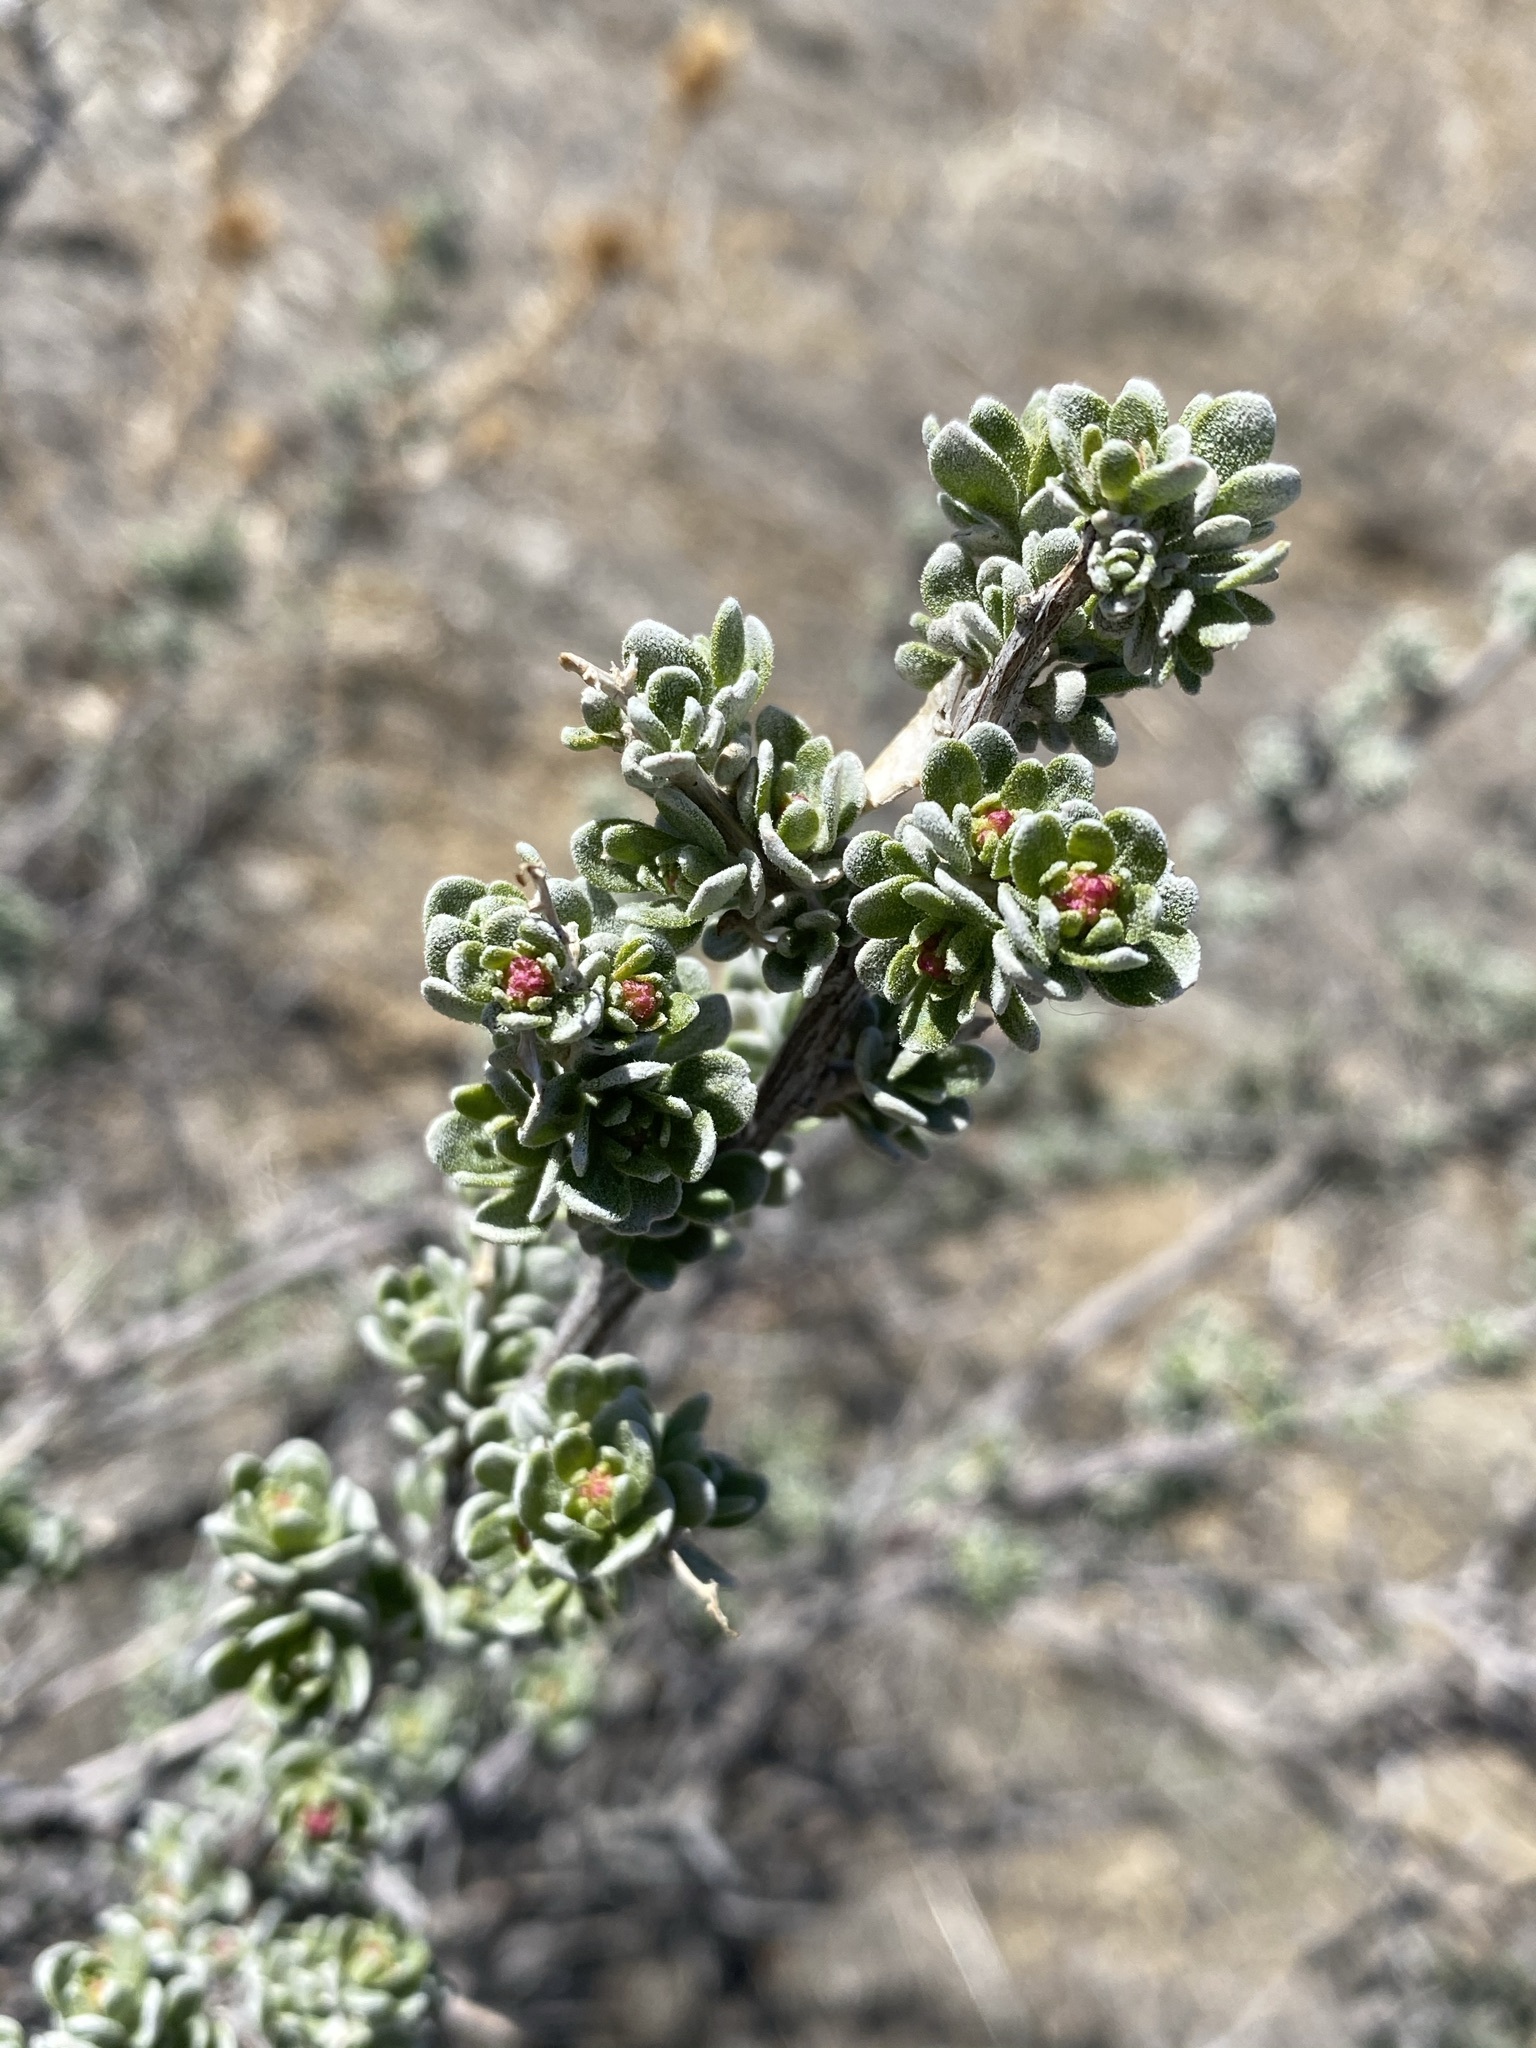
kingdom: Plantae
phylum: Tracheophyta
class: Magnoliopsida
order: Caryophyllales
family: Amaranthaceae
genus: Grayia
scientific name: Grayia spinosa
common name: Spiny hopsage
